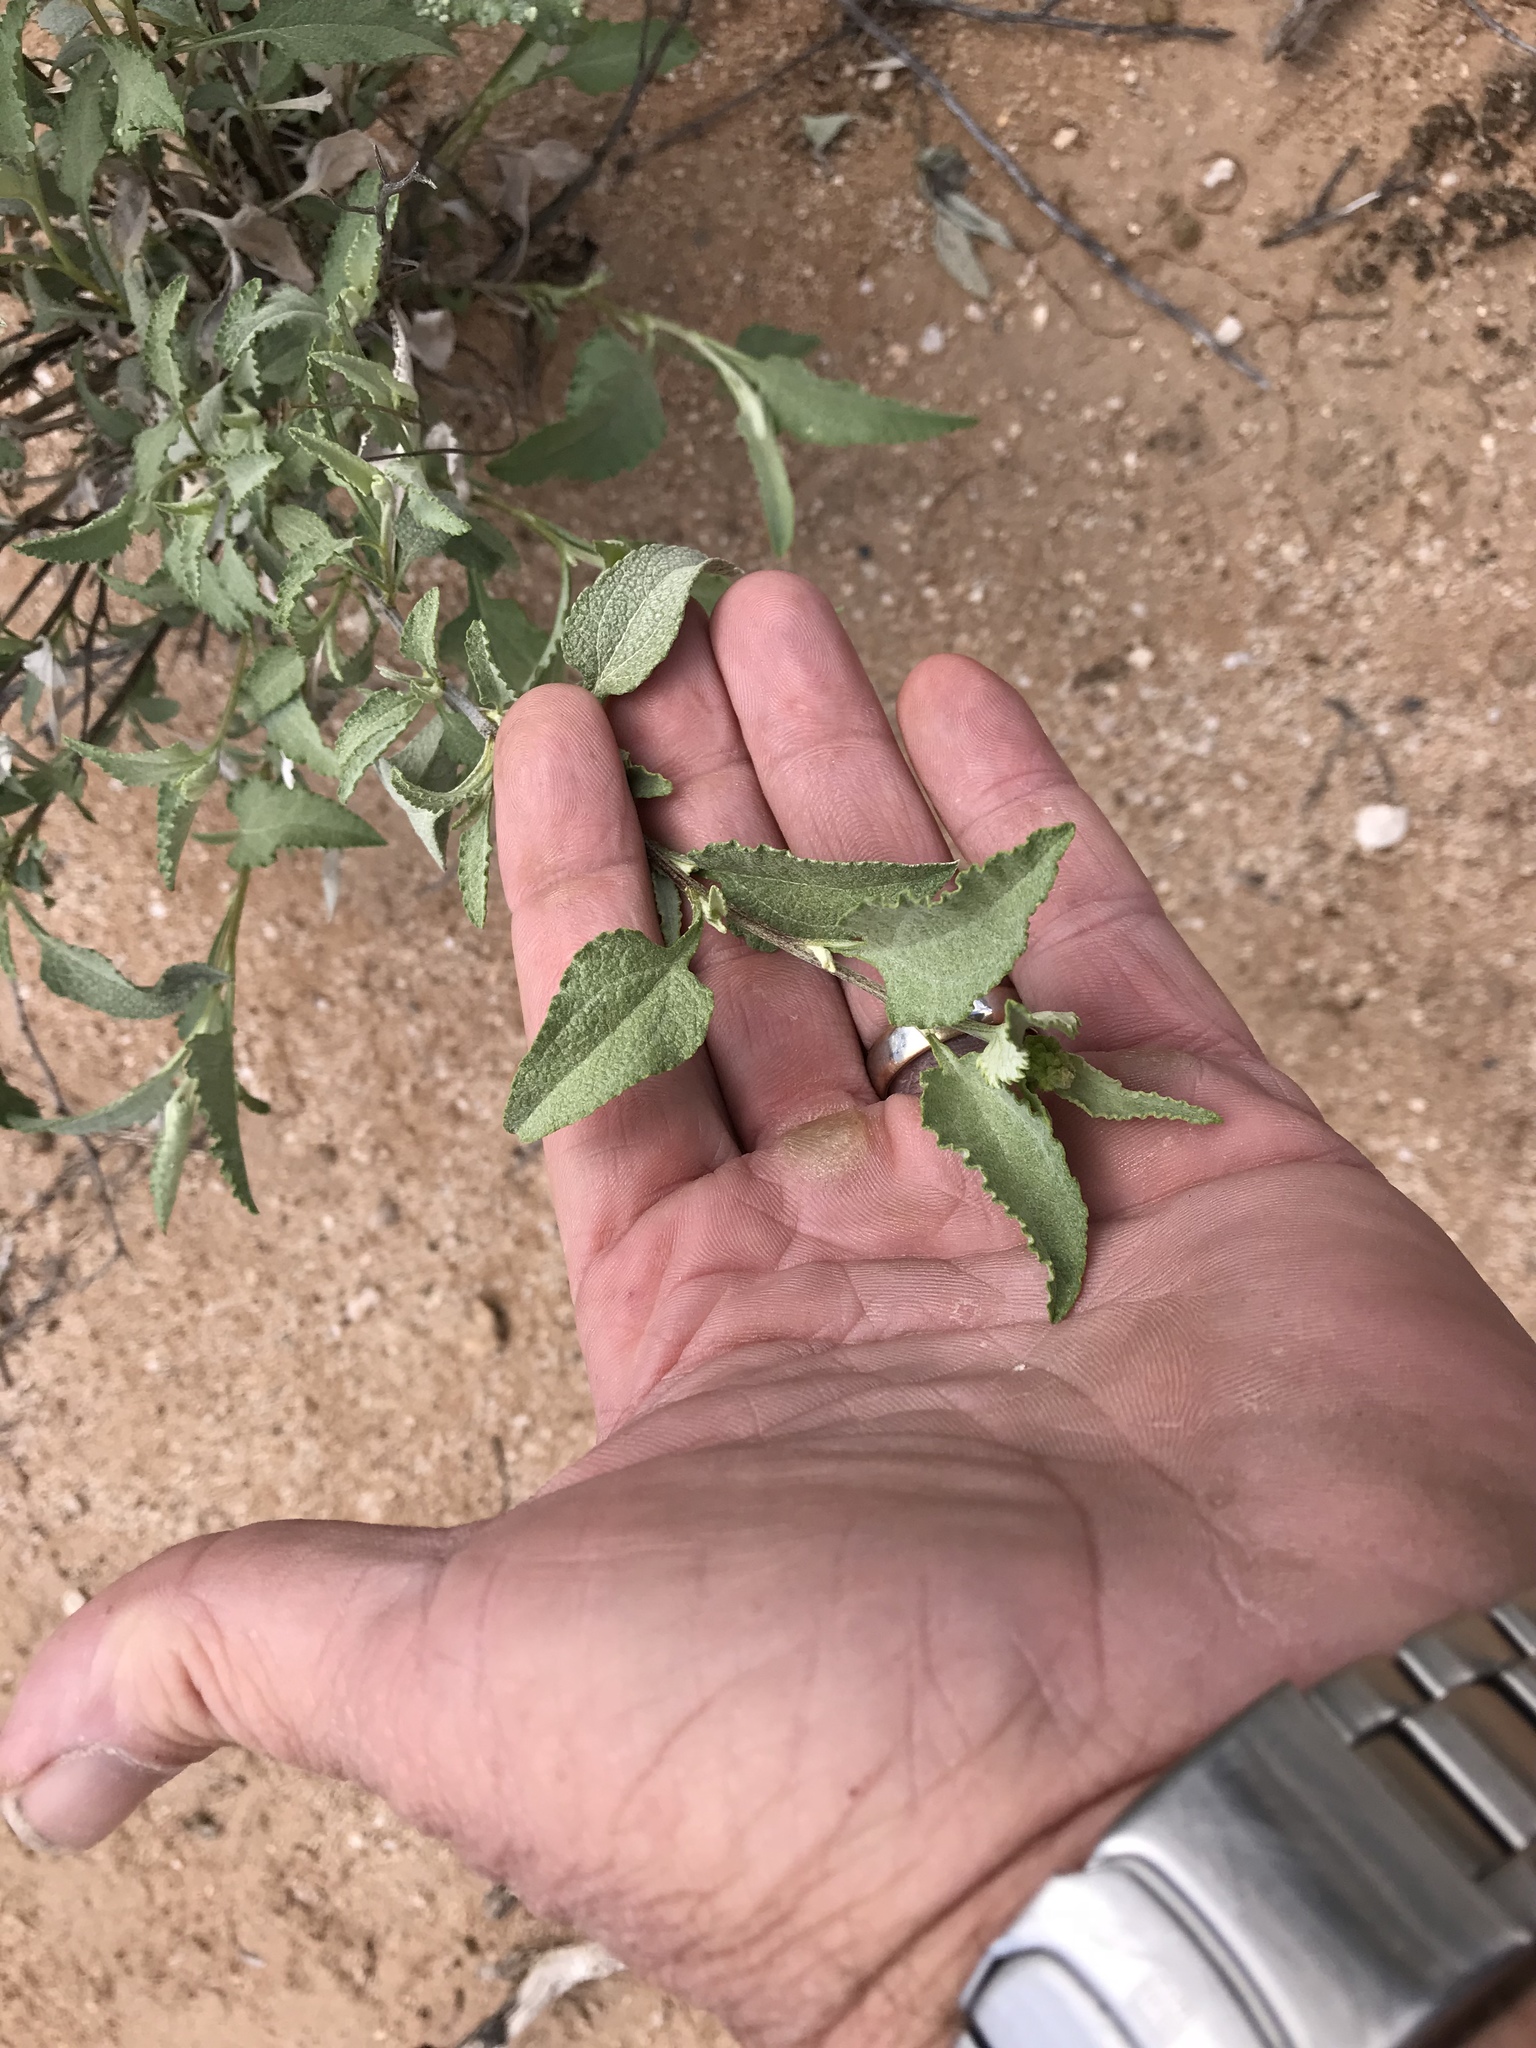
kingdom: Plantae
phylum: Tracheophyta
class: Magnoliopsida
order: Asterales
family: Asteraceae
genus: Ambrosia
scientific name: Ambrosia deltoidea
